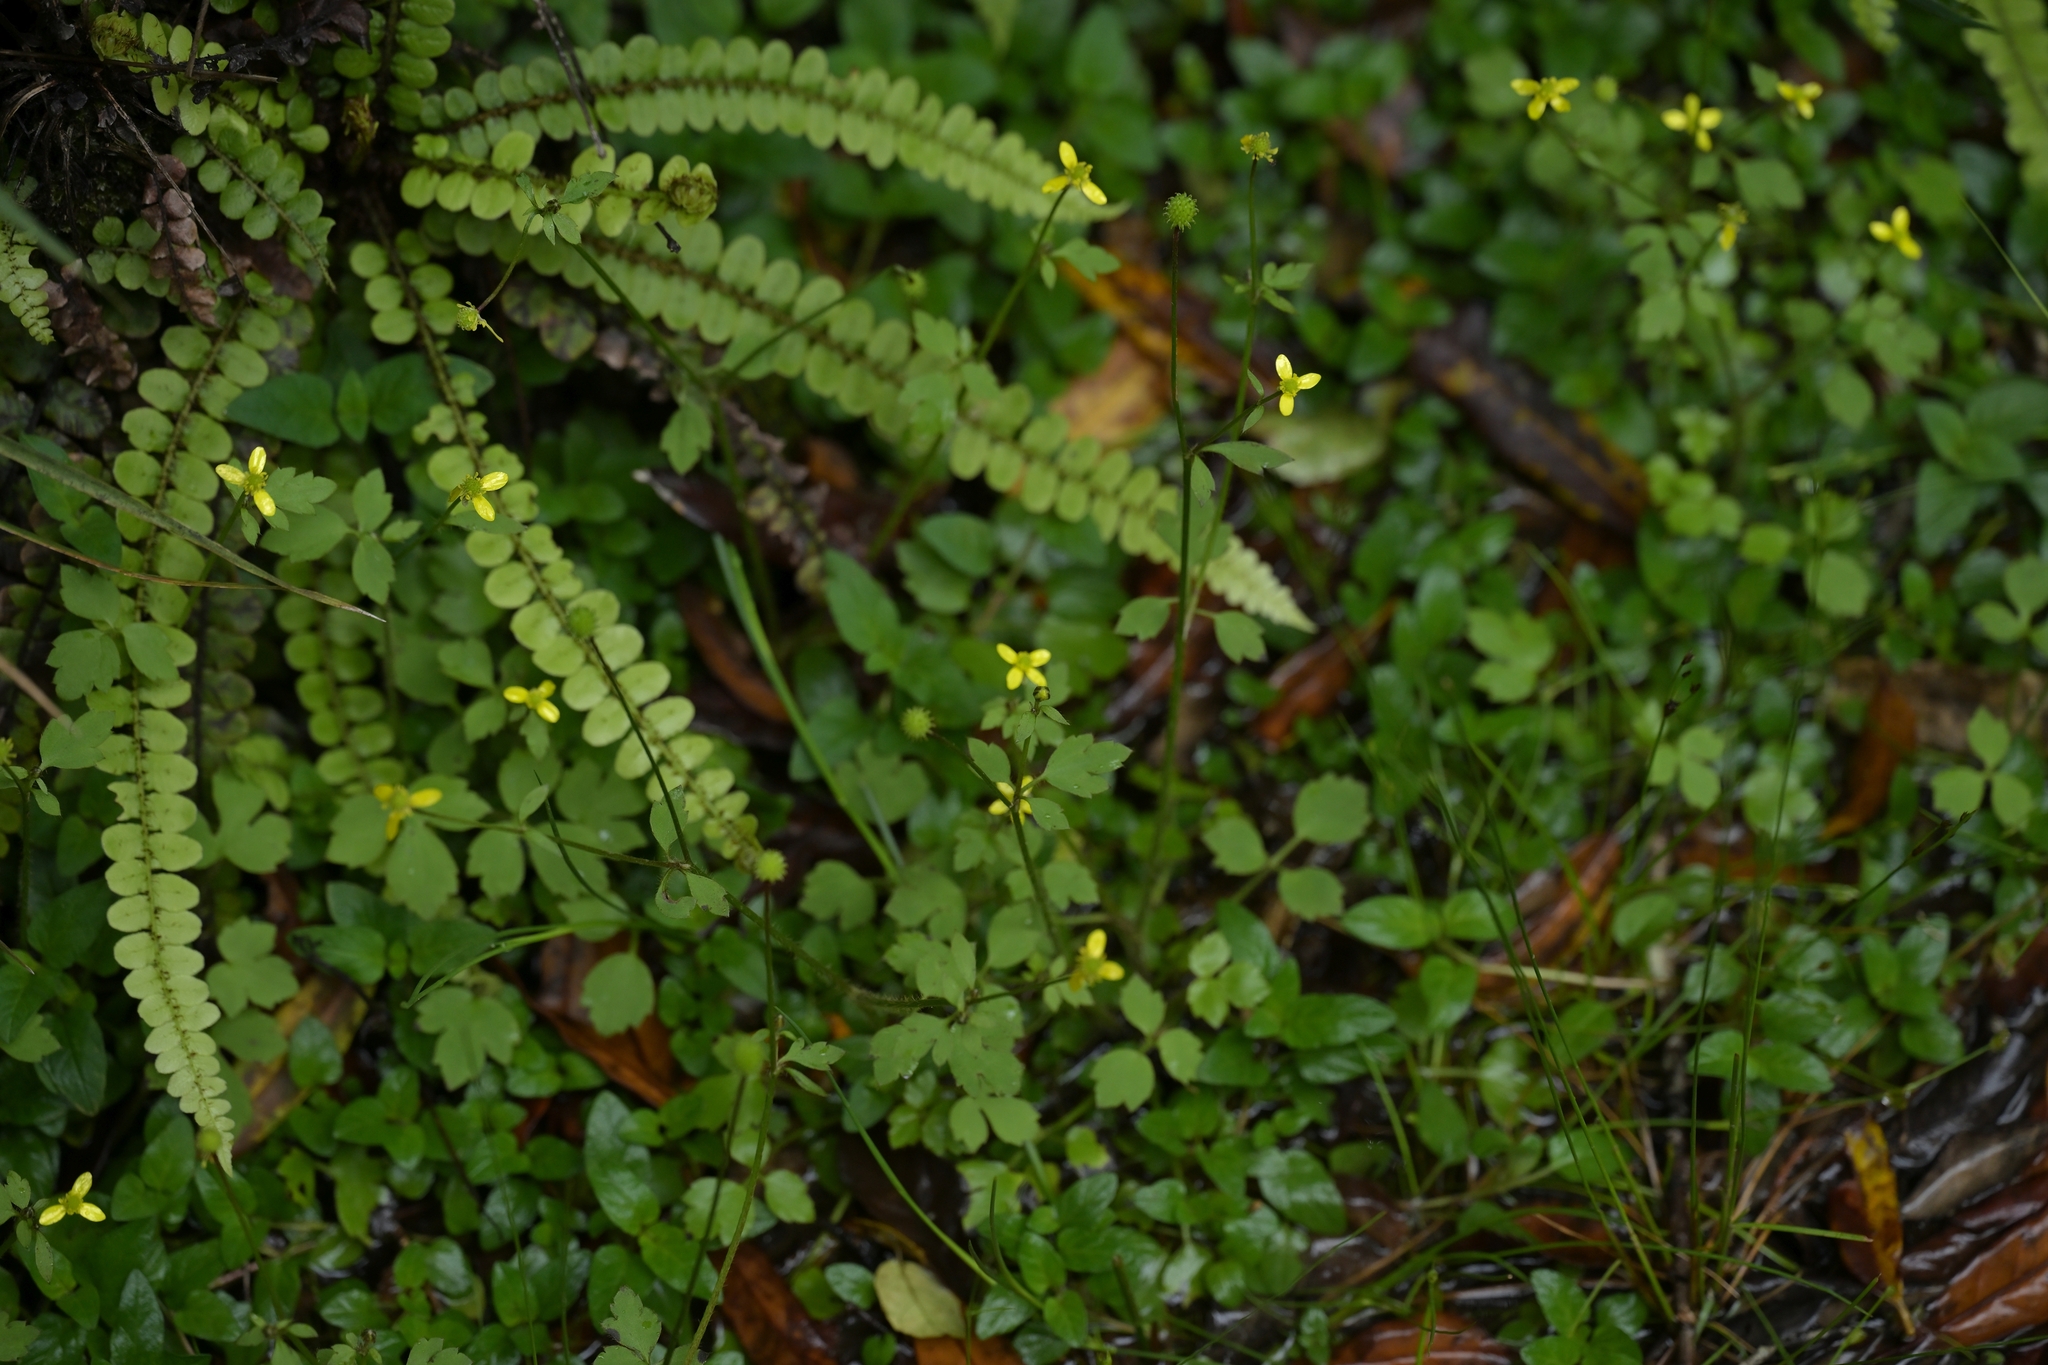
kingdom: Plantae
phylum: Tracheophyta
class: Magnoliopsida
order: Ranunculales
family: Ranunculaceae
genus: Ranunculus
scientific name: Ranunculus reflexus
